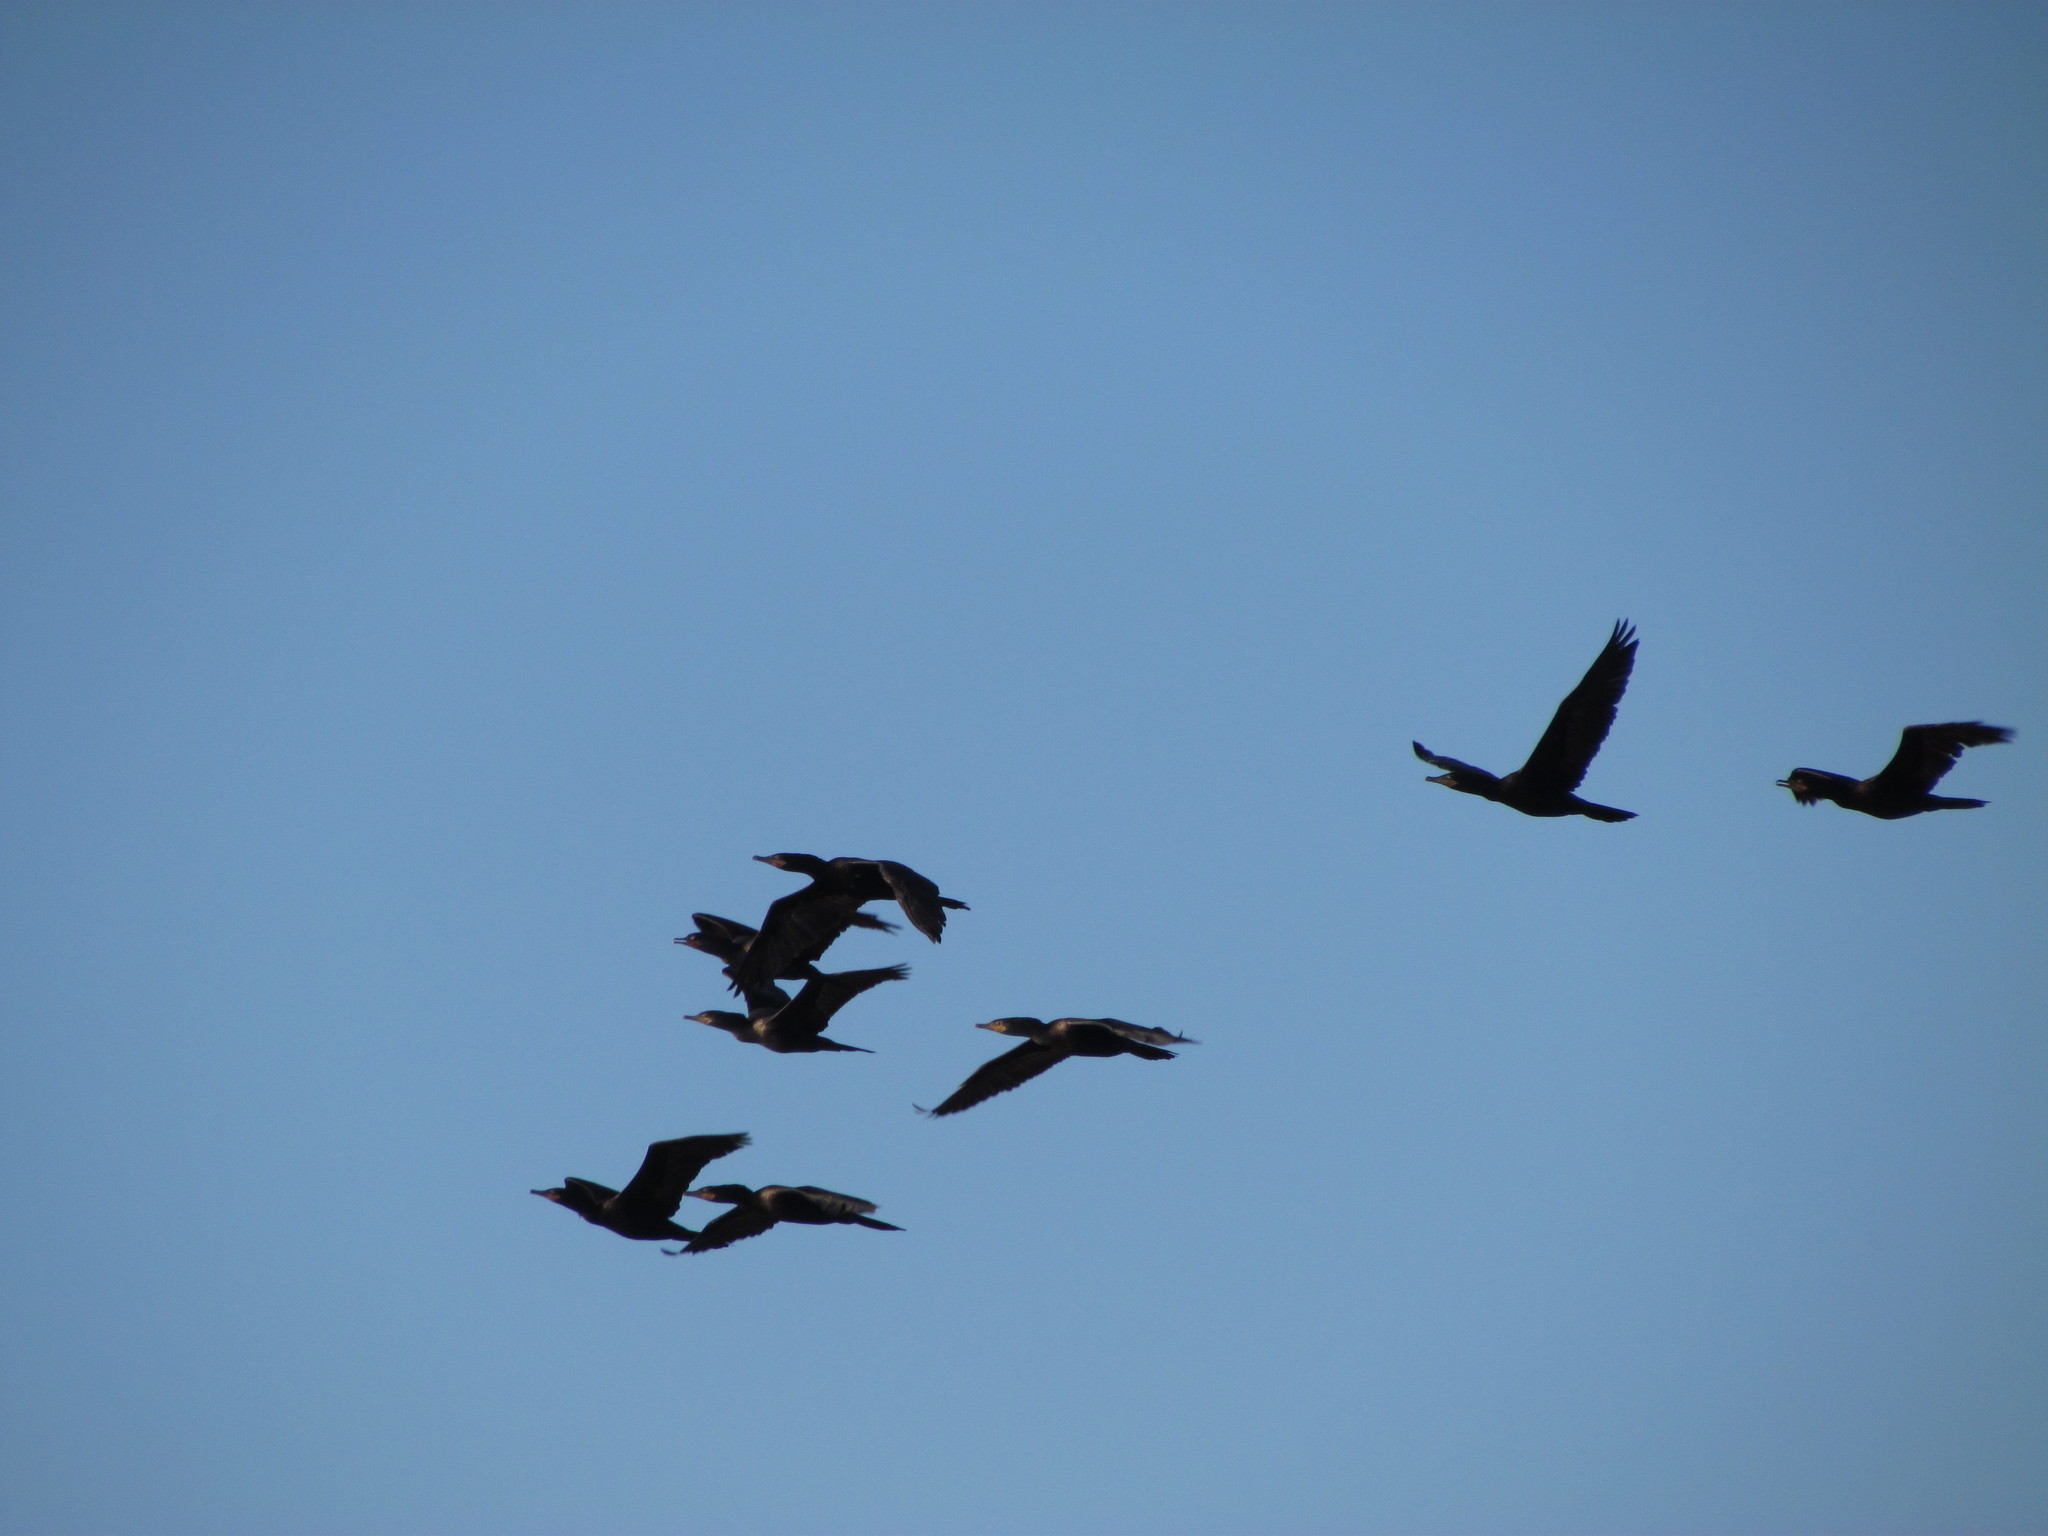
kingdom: Animalia
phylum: Chordata
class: Aves
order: Suliformes
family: Phalacrocoracidae
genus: Phalacrocorax
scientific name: Phalacrocorax brasilianus
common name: Neotropic cormorant
